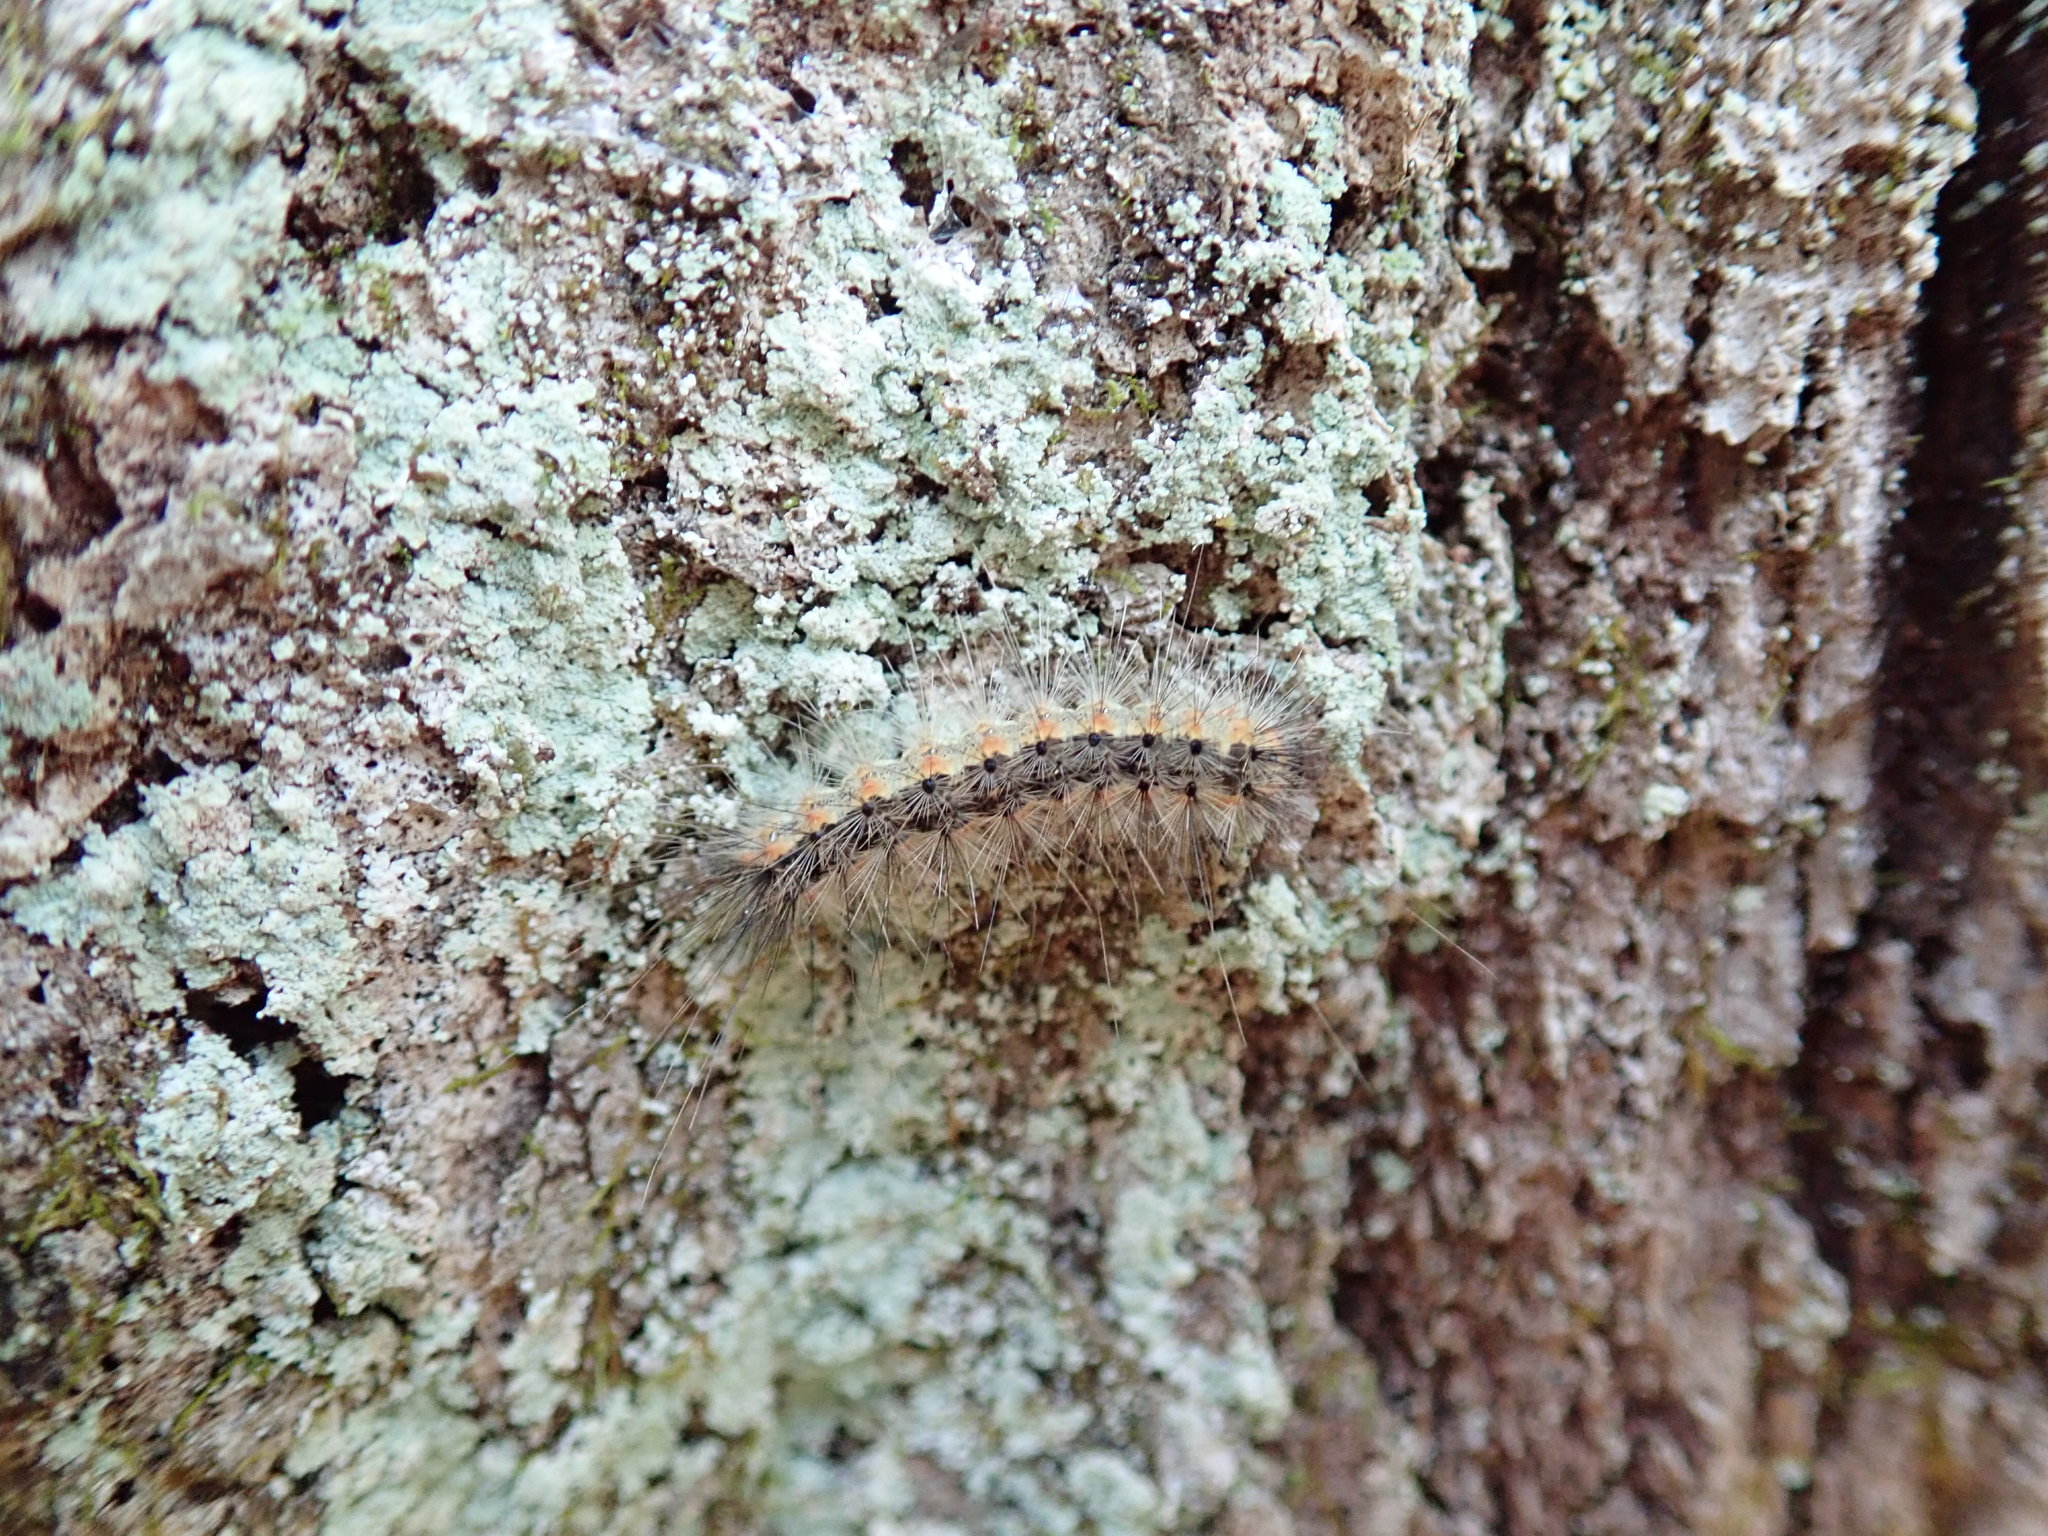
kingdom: Animalia
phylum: Arthropoda
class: Insecta
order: Lepidoptera
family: Erebidae
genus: Hyphantria
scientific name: Hyphantria cunea
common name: American white moth
